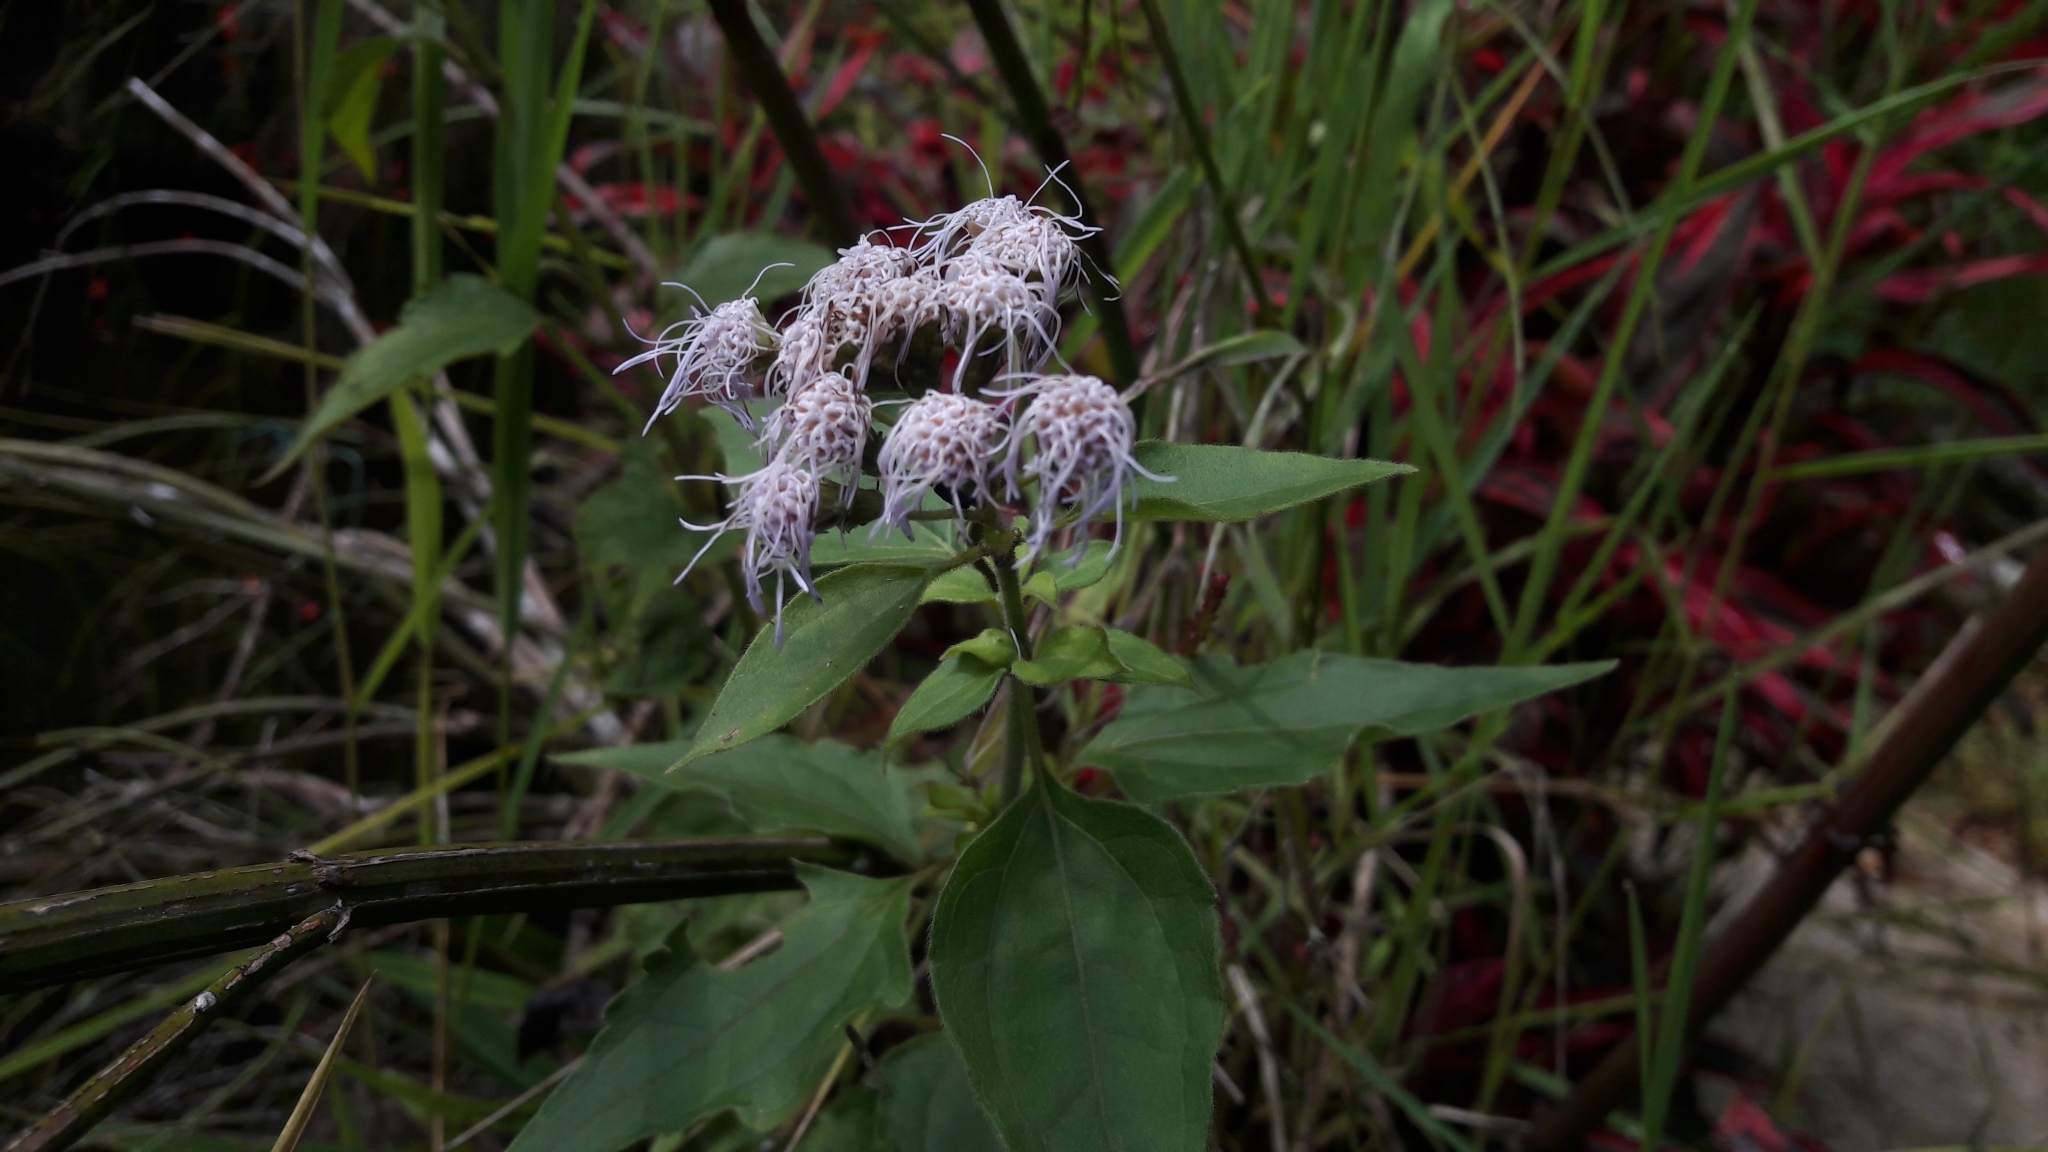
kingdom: Plantae
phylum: Tracheophyta
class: Magnoliopsida
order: Asterales
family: Asteraceae
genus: Chromolaena
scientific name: Chromolaena odorata
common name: Siamweed
